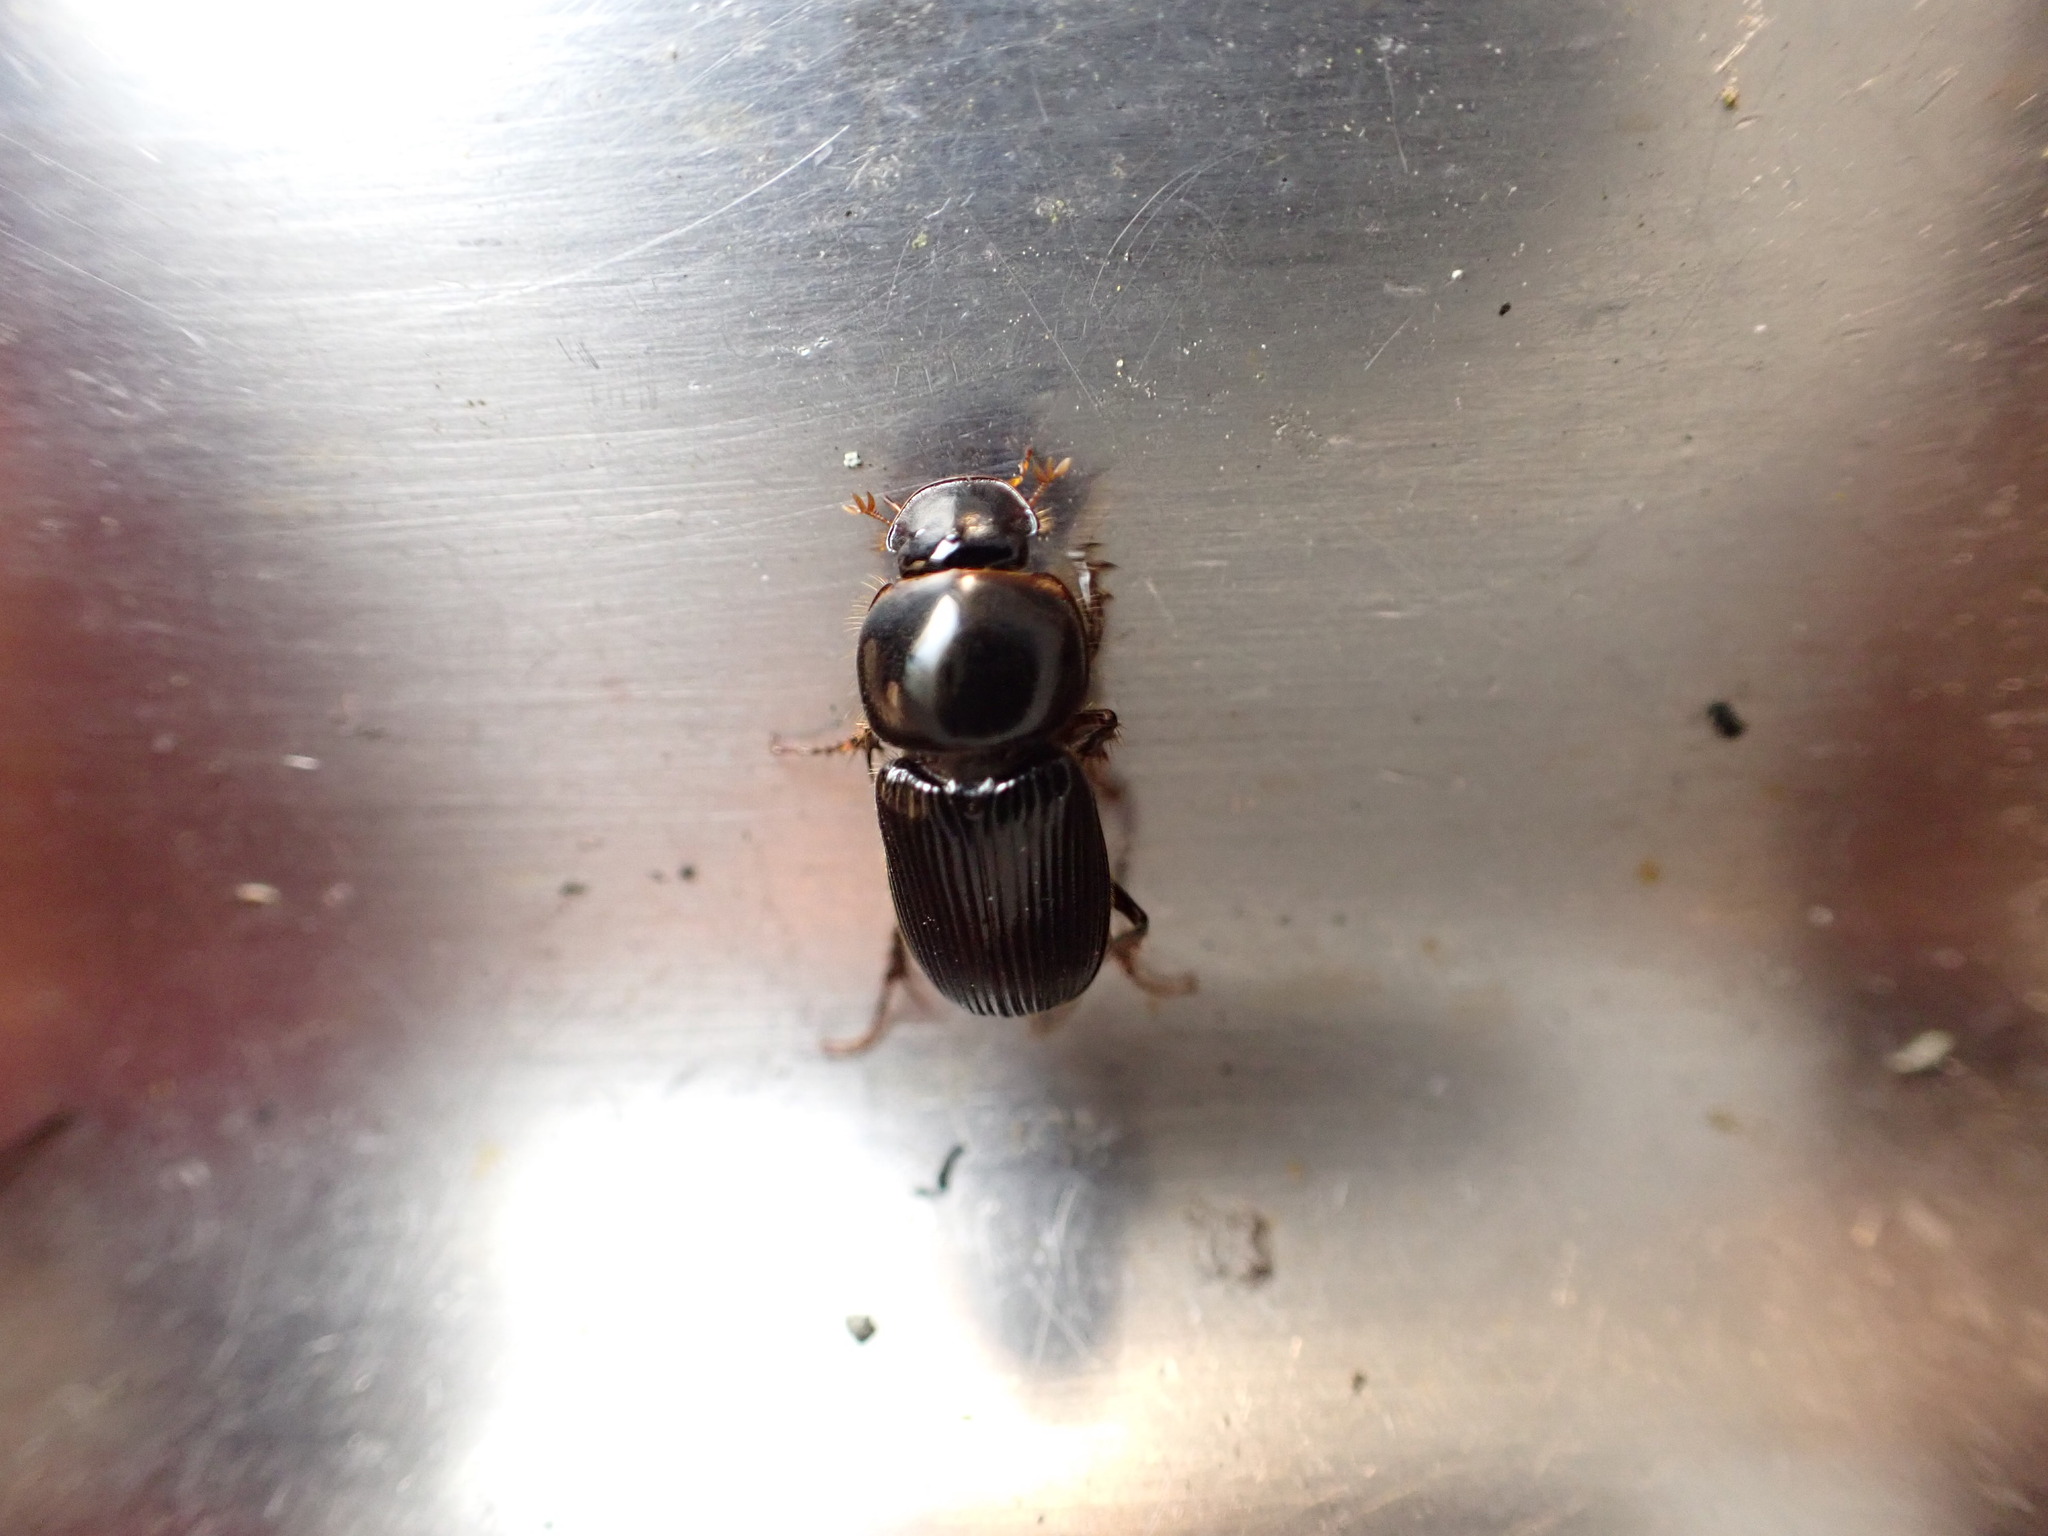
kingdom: Animalia
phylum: Arthropoda
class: Insecta
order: Coleoptera
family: Scarabaeidae
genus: Acrossidius
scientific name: Acrossidius tasmaniae
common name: Black-headed pasture cockchafer
